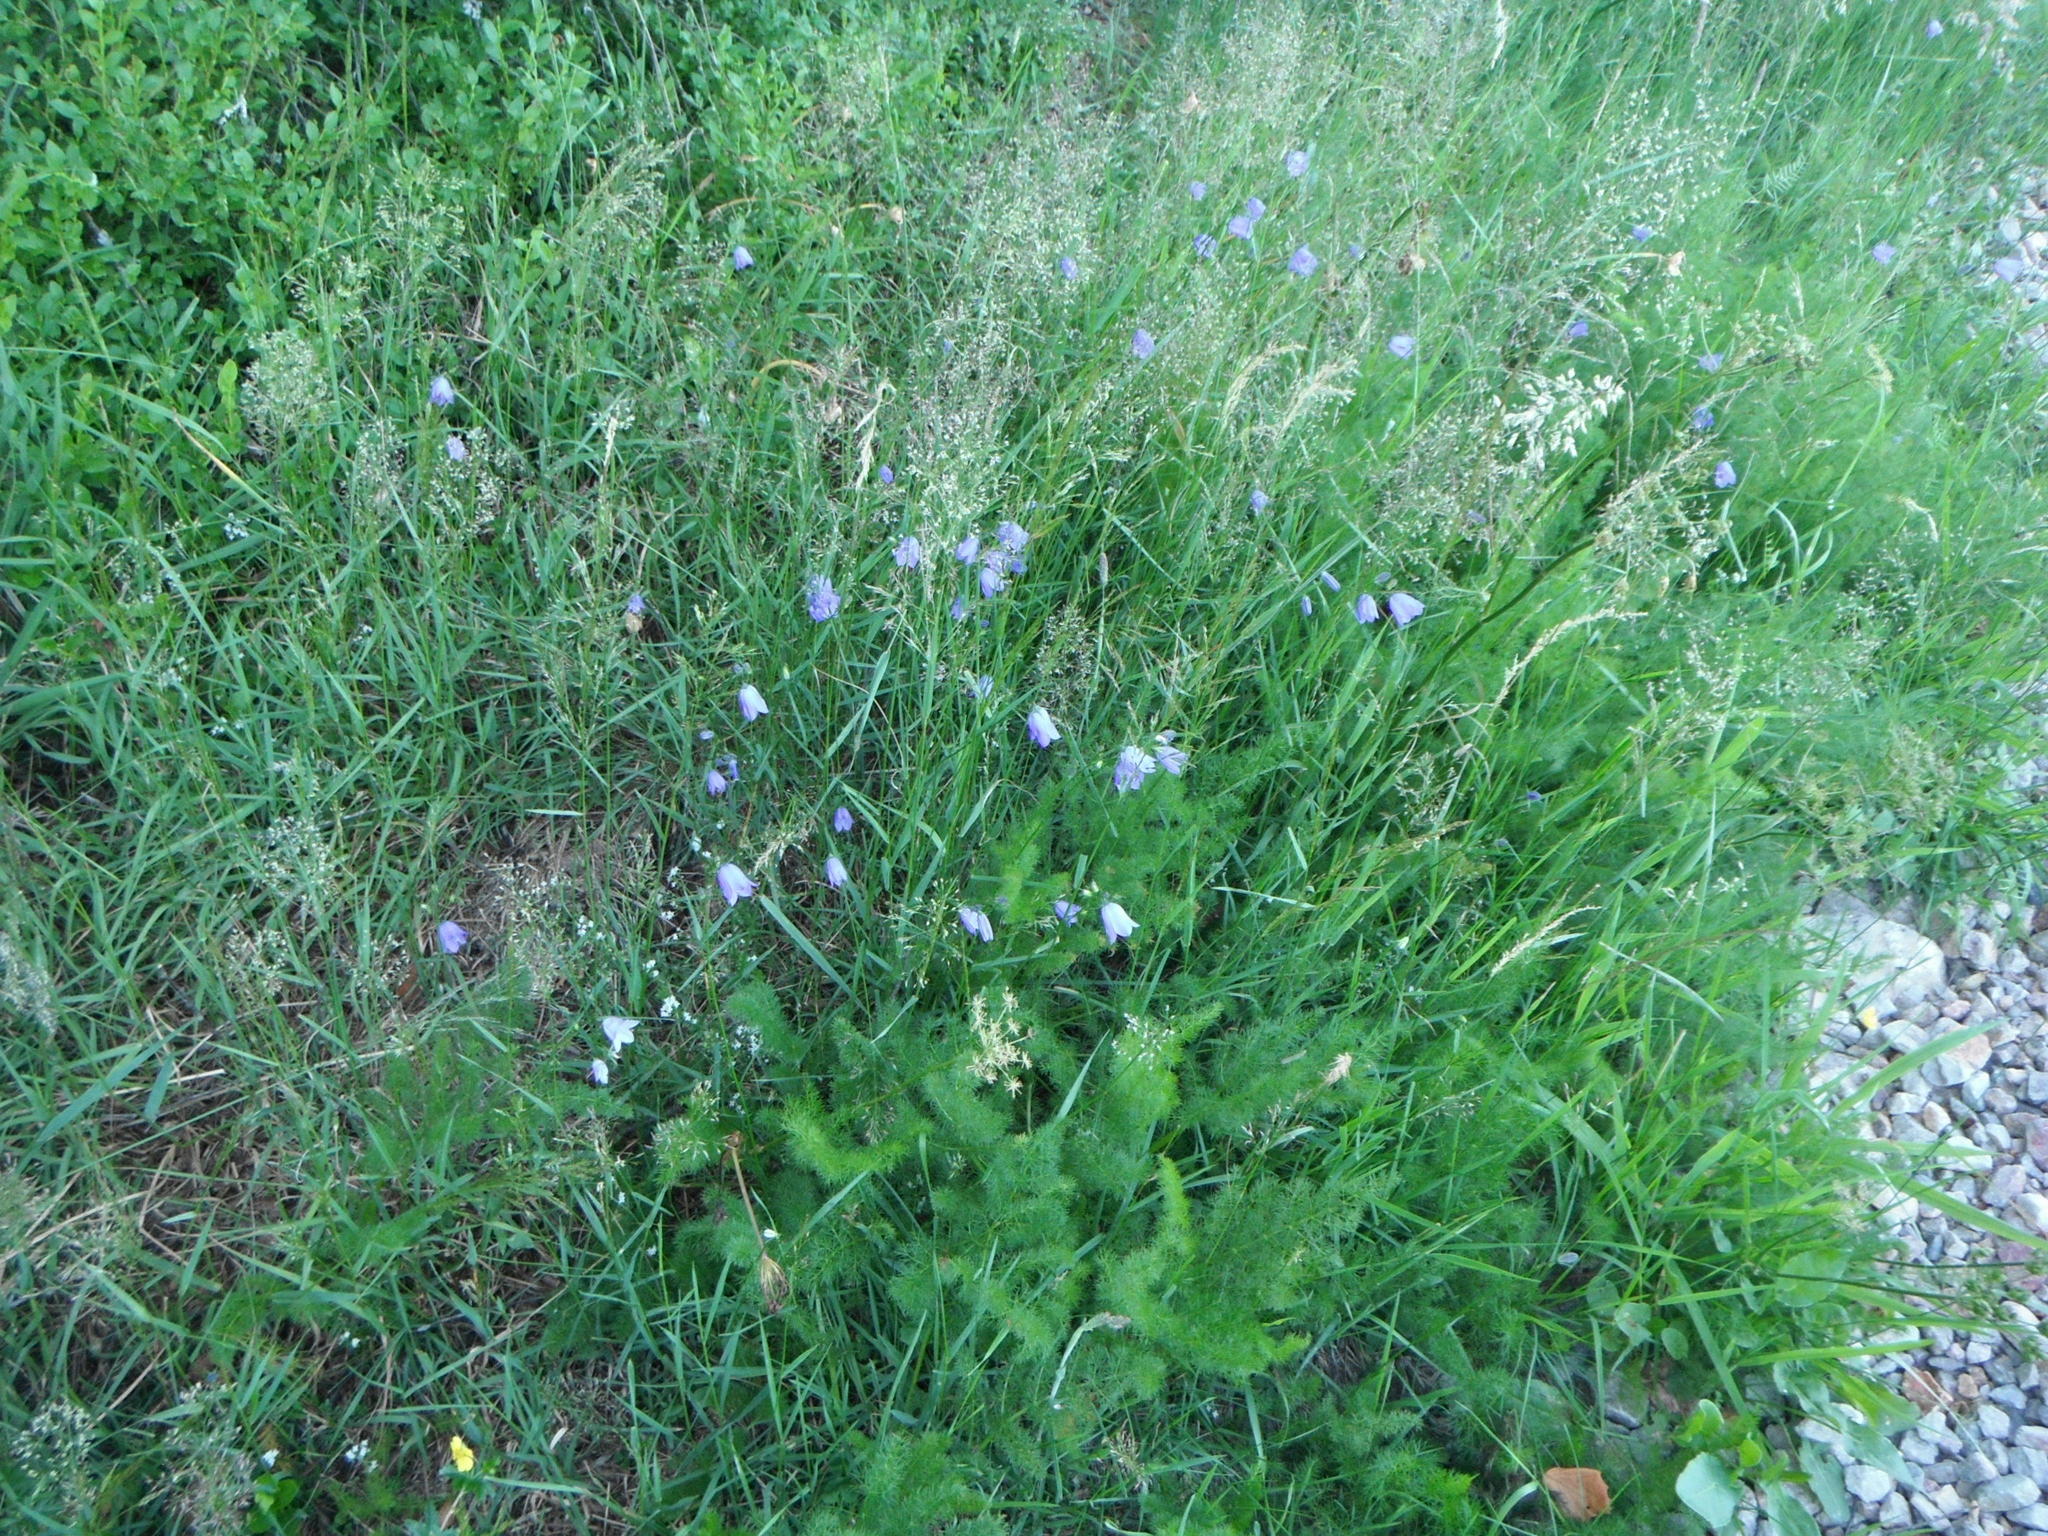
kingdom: Plantae
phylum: Tracheophyta
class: Magnoliopsida
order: Asterales
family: Campanulaceae
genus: Campanula
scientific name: Campanula rotundifolia
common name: Harebell
